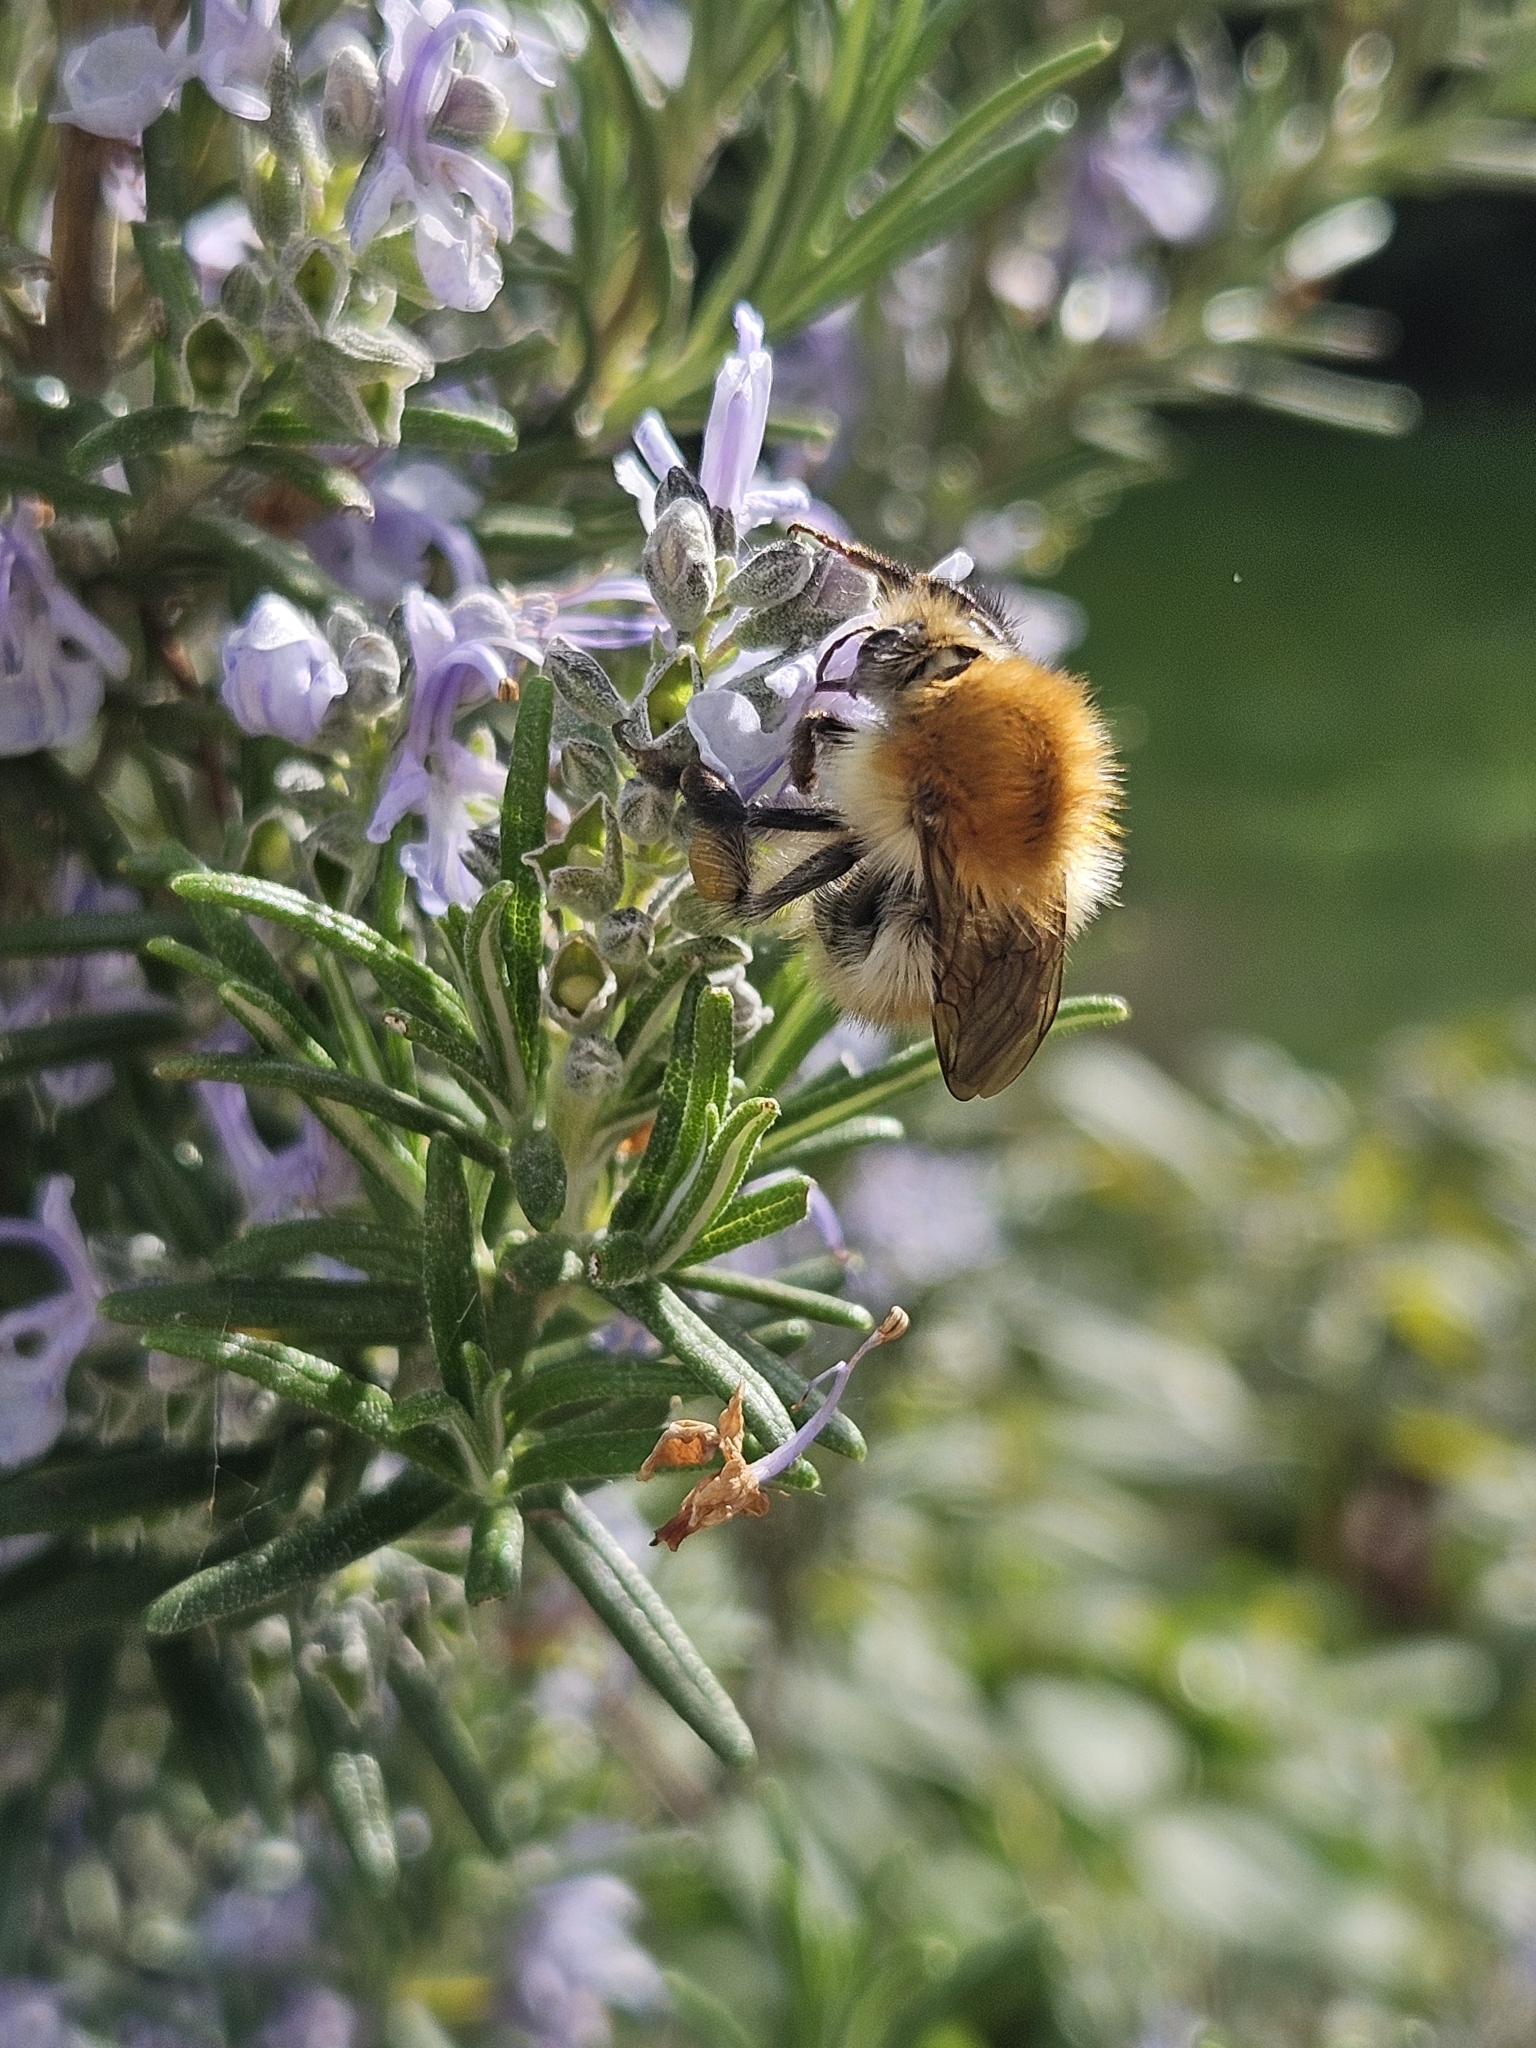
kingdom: Animalia
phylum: Arthropoda
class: Insecta
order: Hymenoptera
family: Apidae
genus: Bombus
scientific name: Bombus pascuorum
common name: Common carder bee
